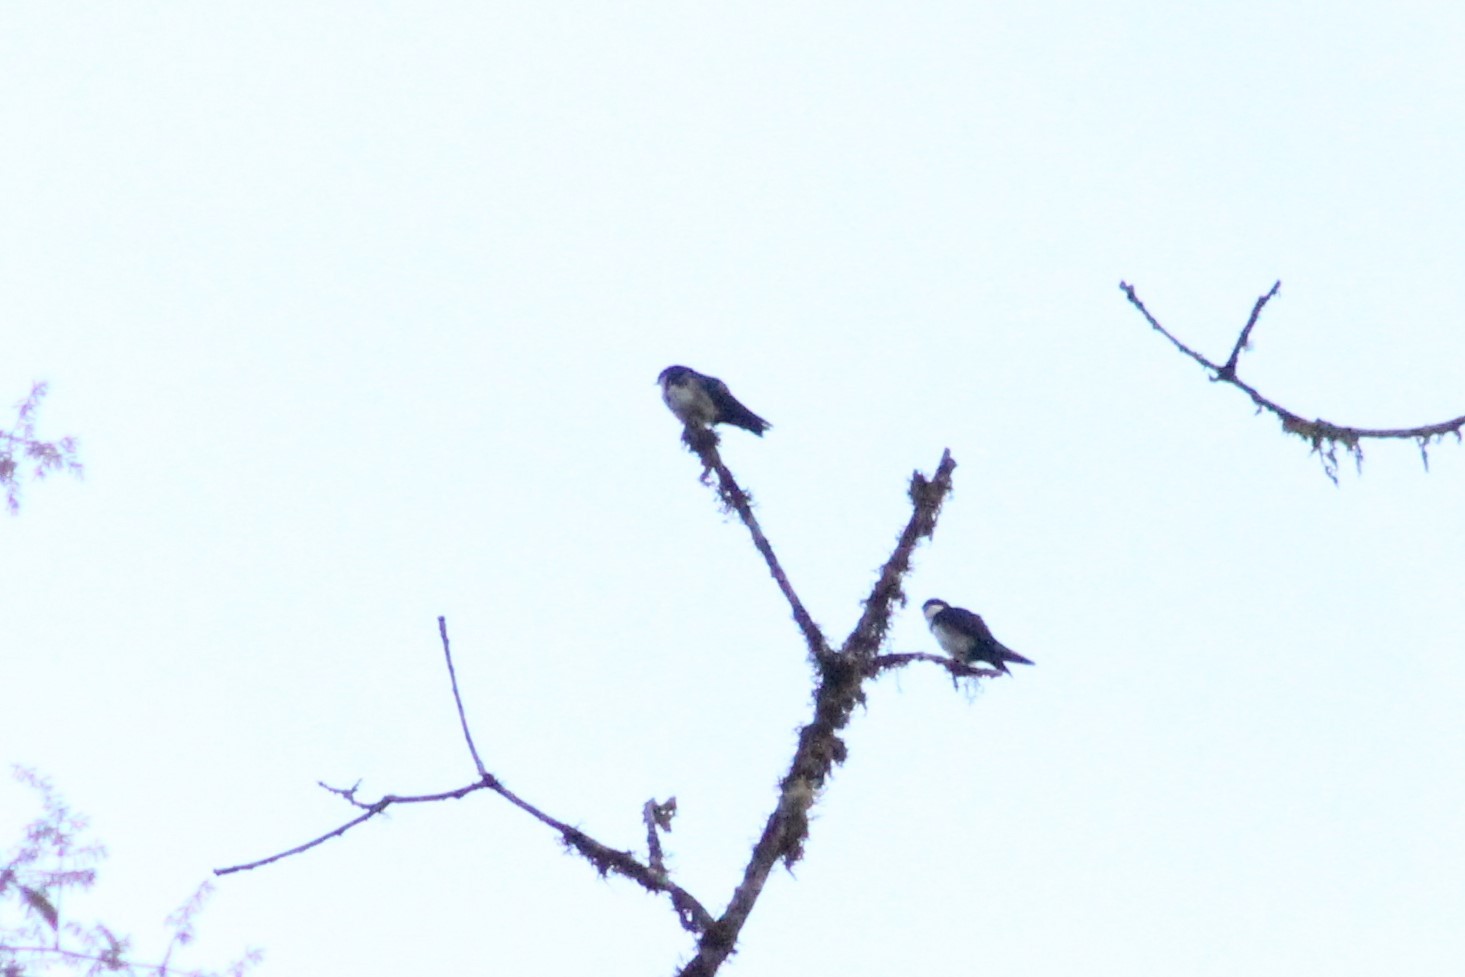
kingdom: Animalia
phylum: Chordata
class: Aves
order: Passeriformes
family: Hirundinidae
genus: Notiochelidon
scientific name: Notiochelidon cyanoleuca
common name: Blue-and-white swallow
